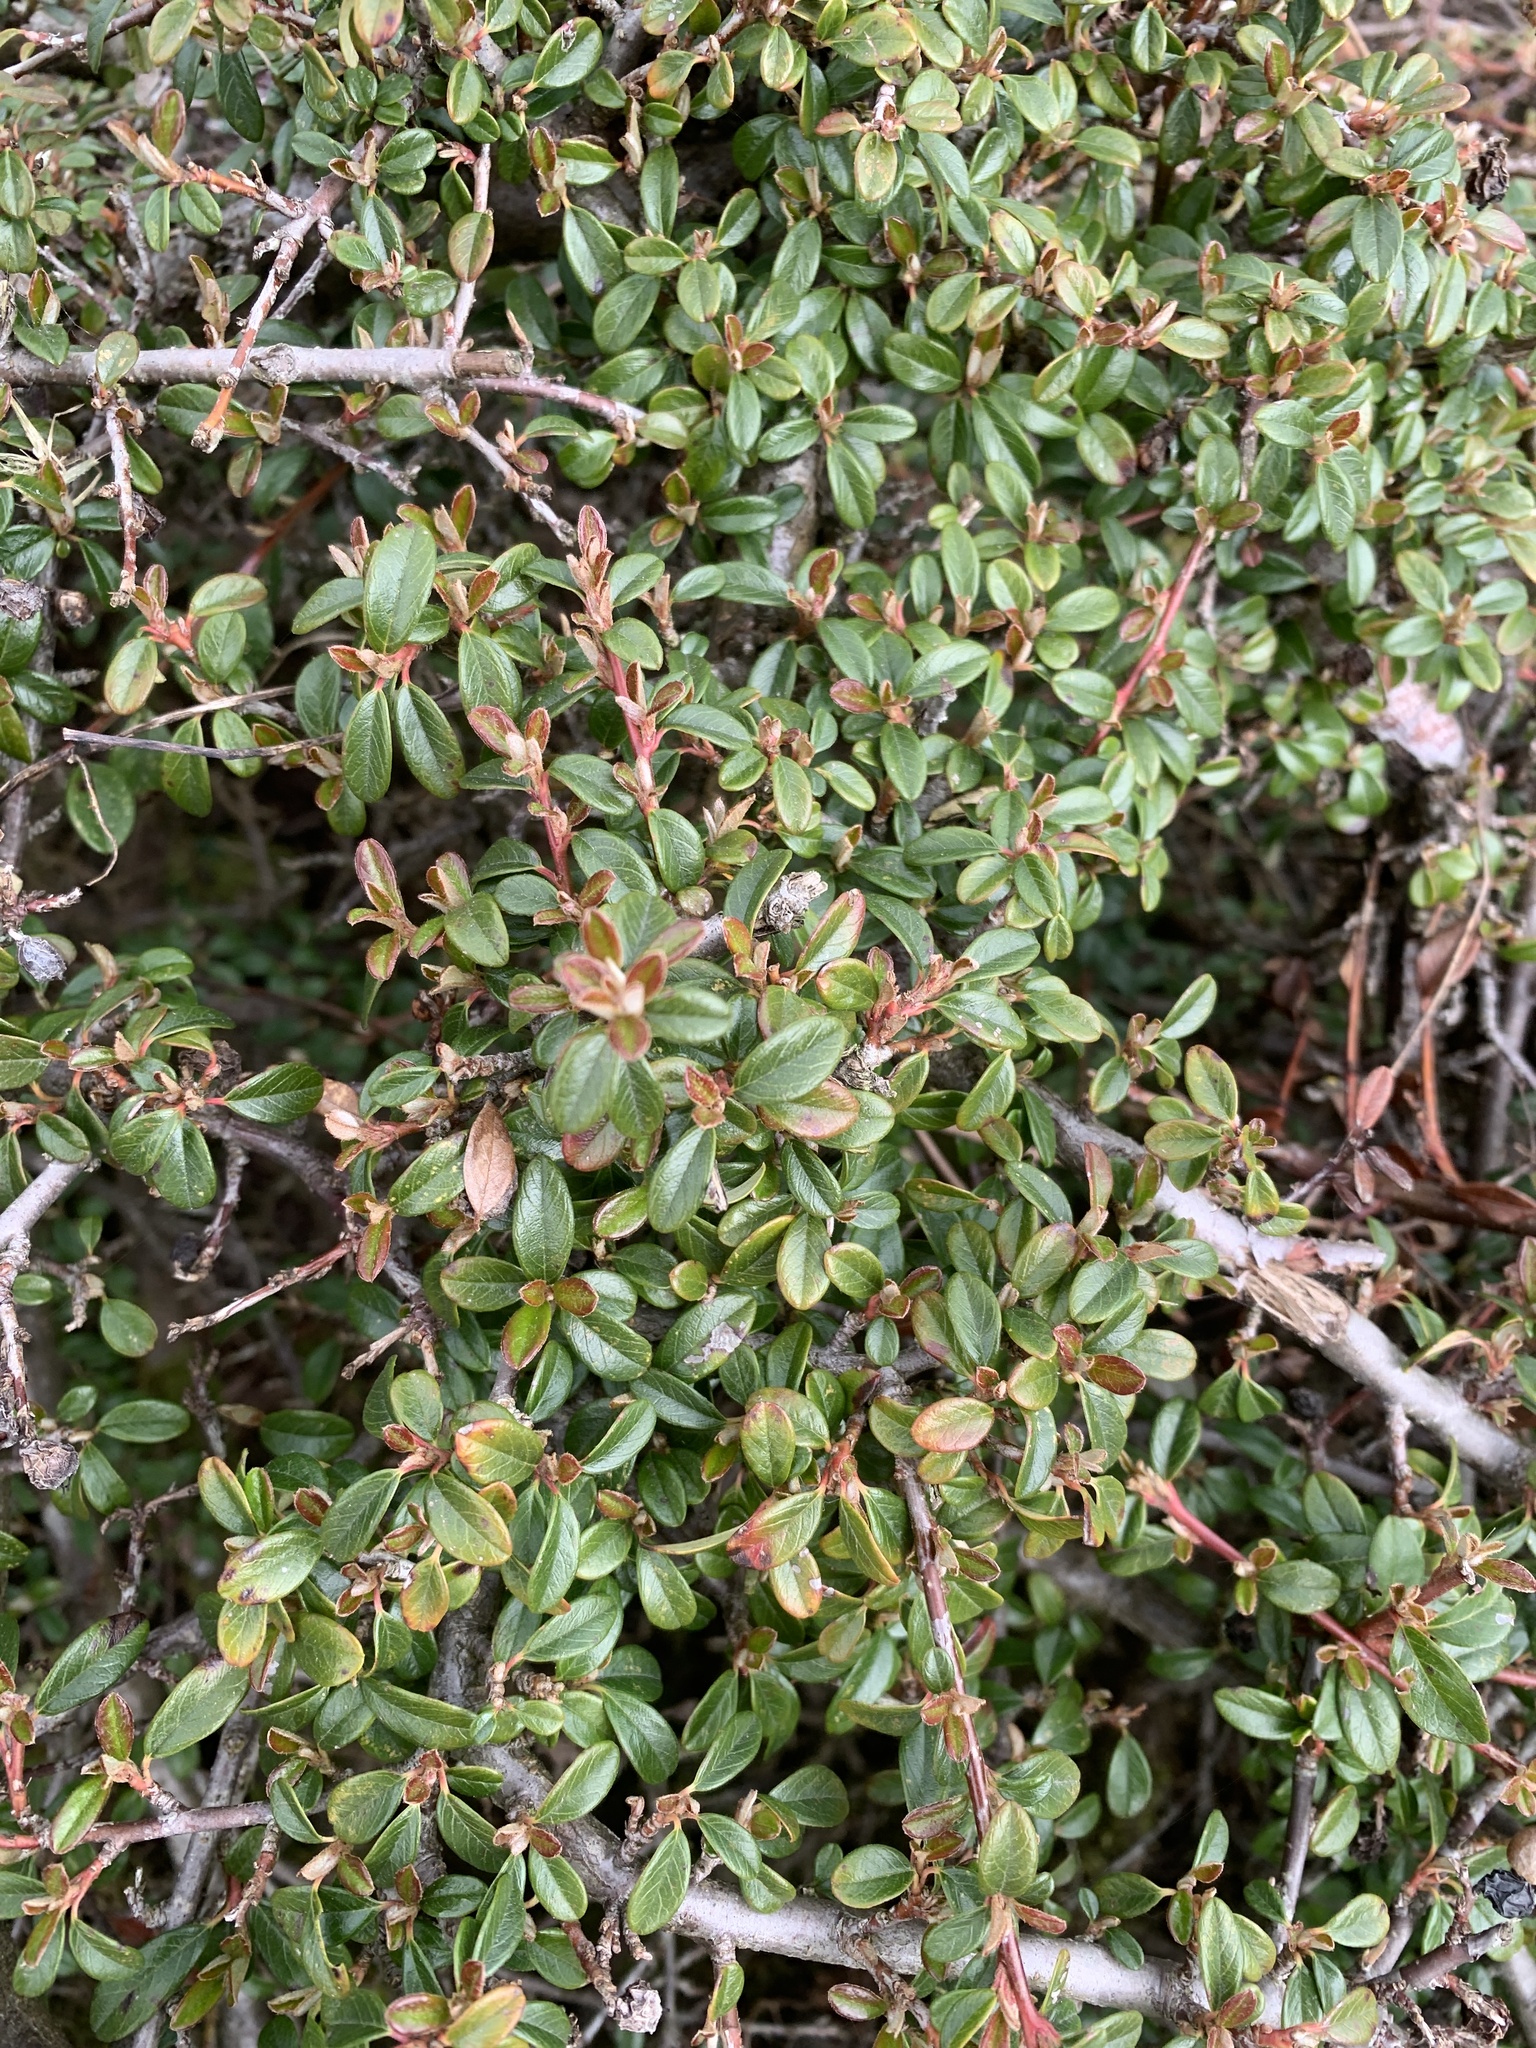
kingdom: Plantae
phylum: Tracheophyta
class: Magnoliopsida
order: Rosales
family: Rosaceae
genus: Cotoneaster
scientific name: Cotoneaster horizontalis
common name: Wall cotoneaster
